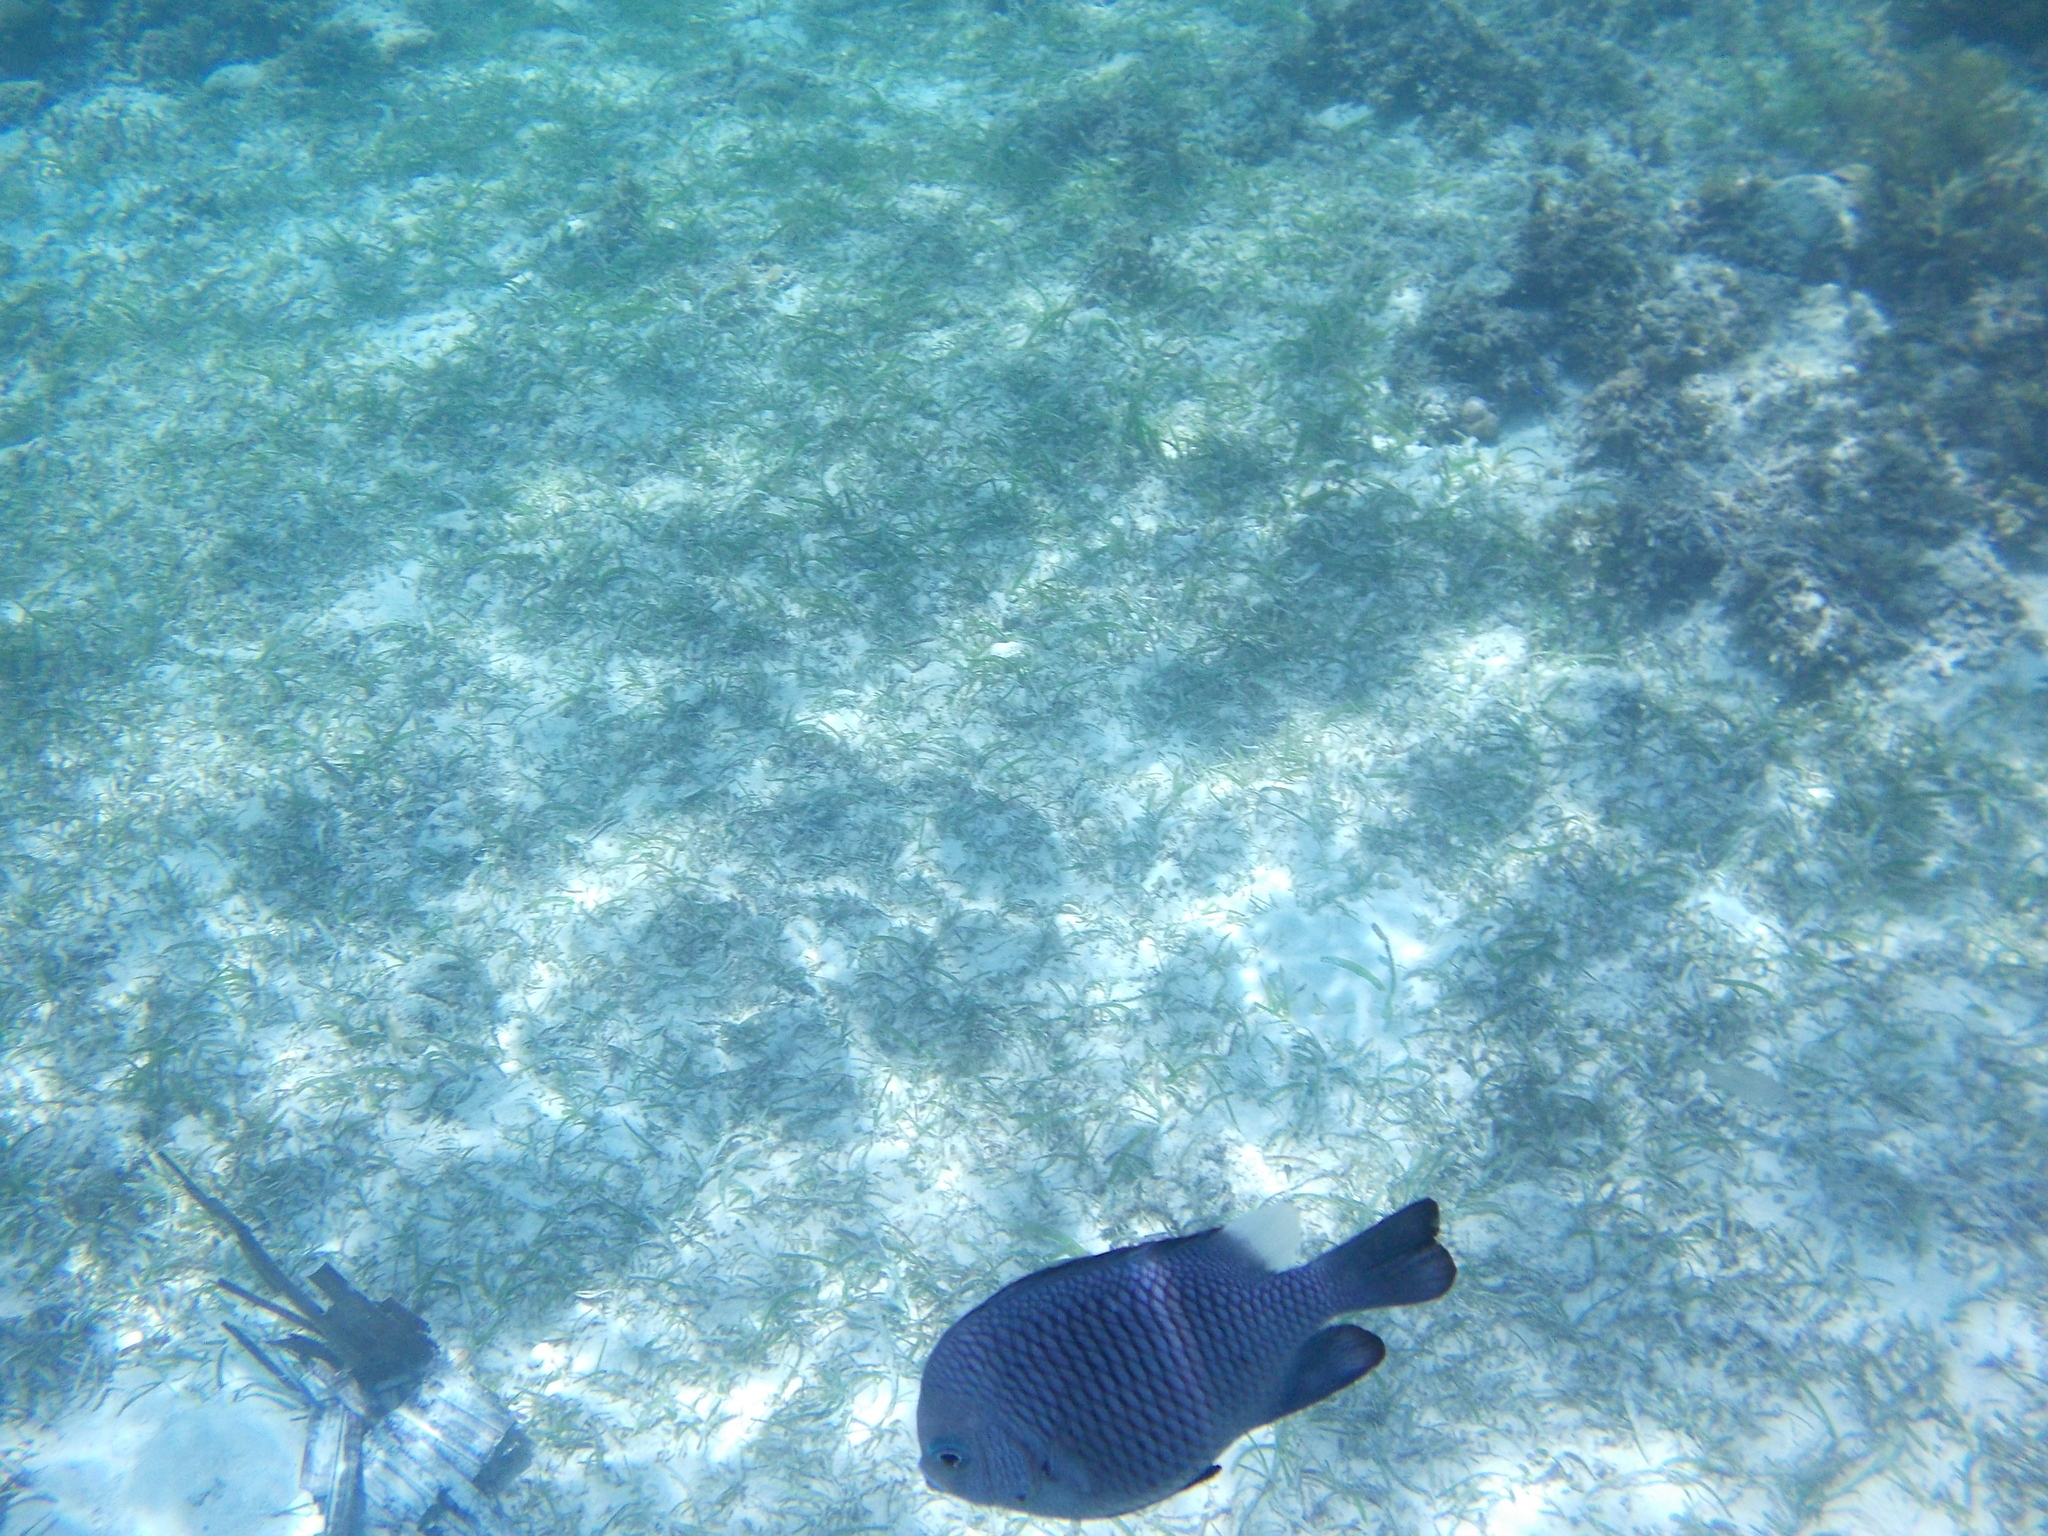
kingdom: Animalia
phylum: Chordata
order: Perciformes
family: Pomacentridae
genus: Dascyllus
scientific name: Dascyllus trimaculatus
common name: Threespot dascyllus
